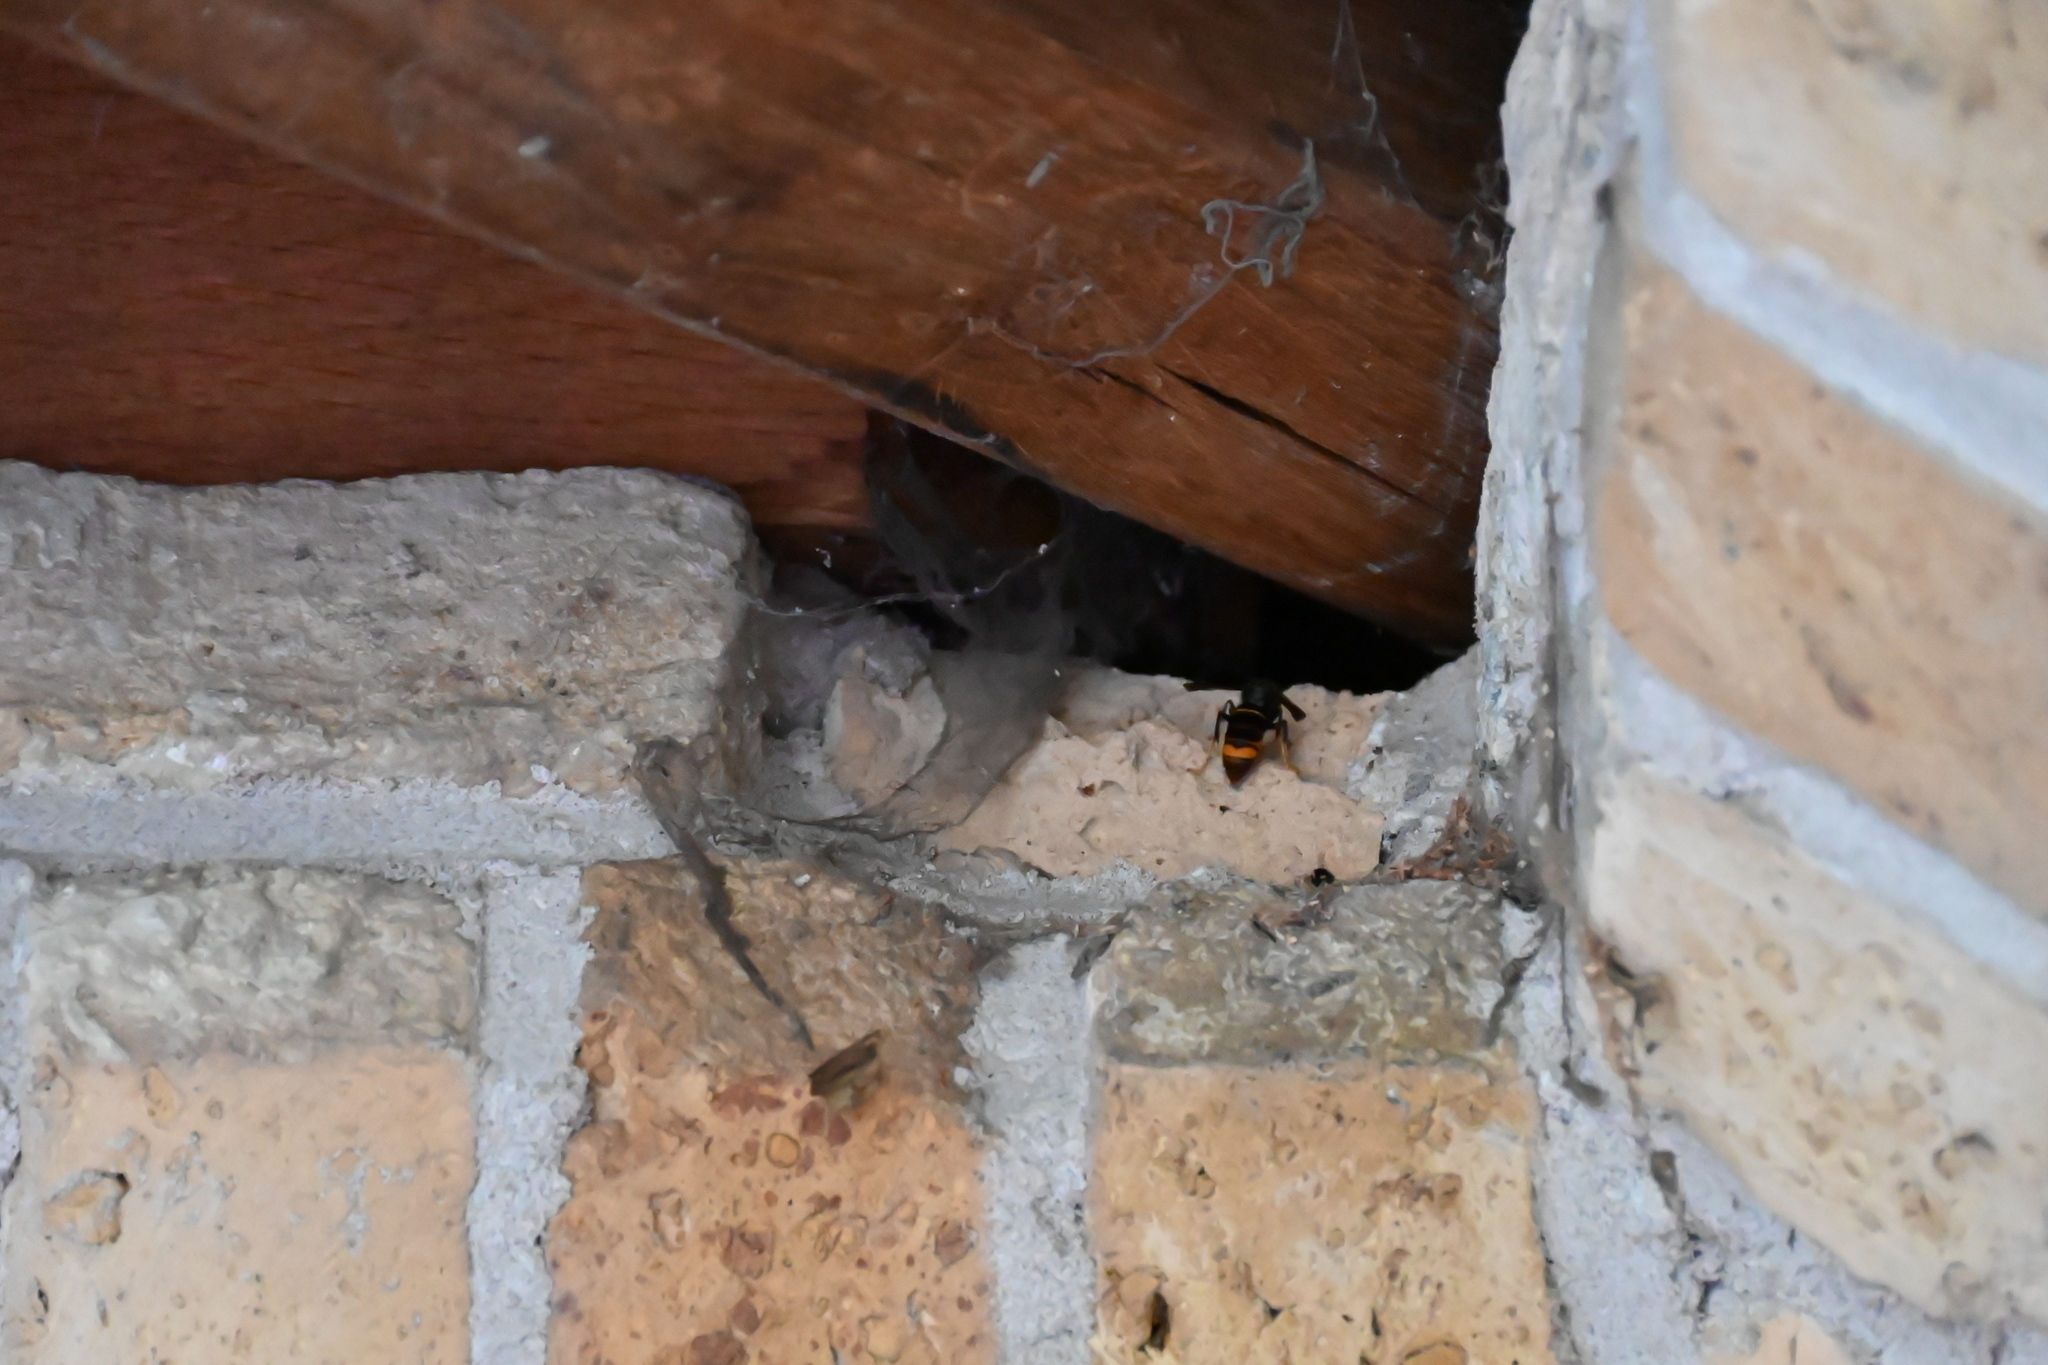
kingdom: Animalia
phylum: Arthropoda
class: Insecta
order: Hymenoptera
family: Vespidae
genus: Vespa
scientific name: Vespa velutina
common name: Asian hornet
